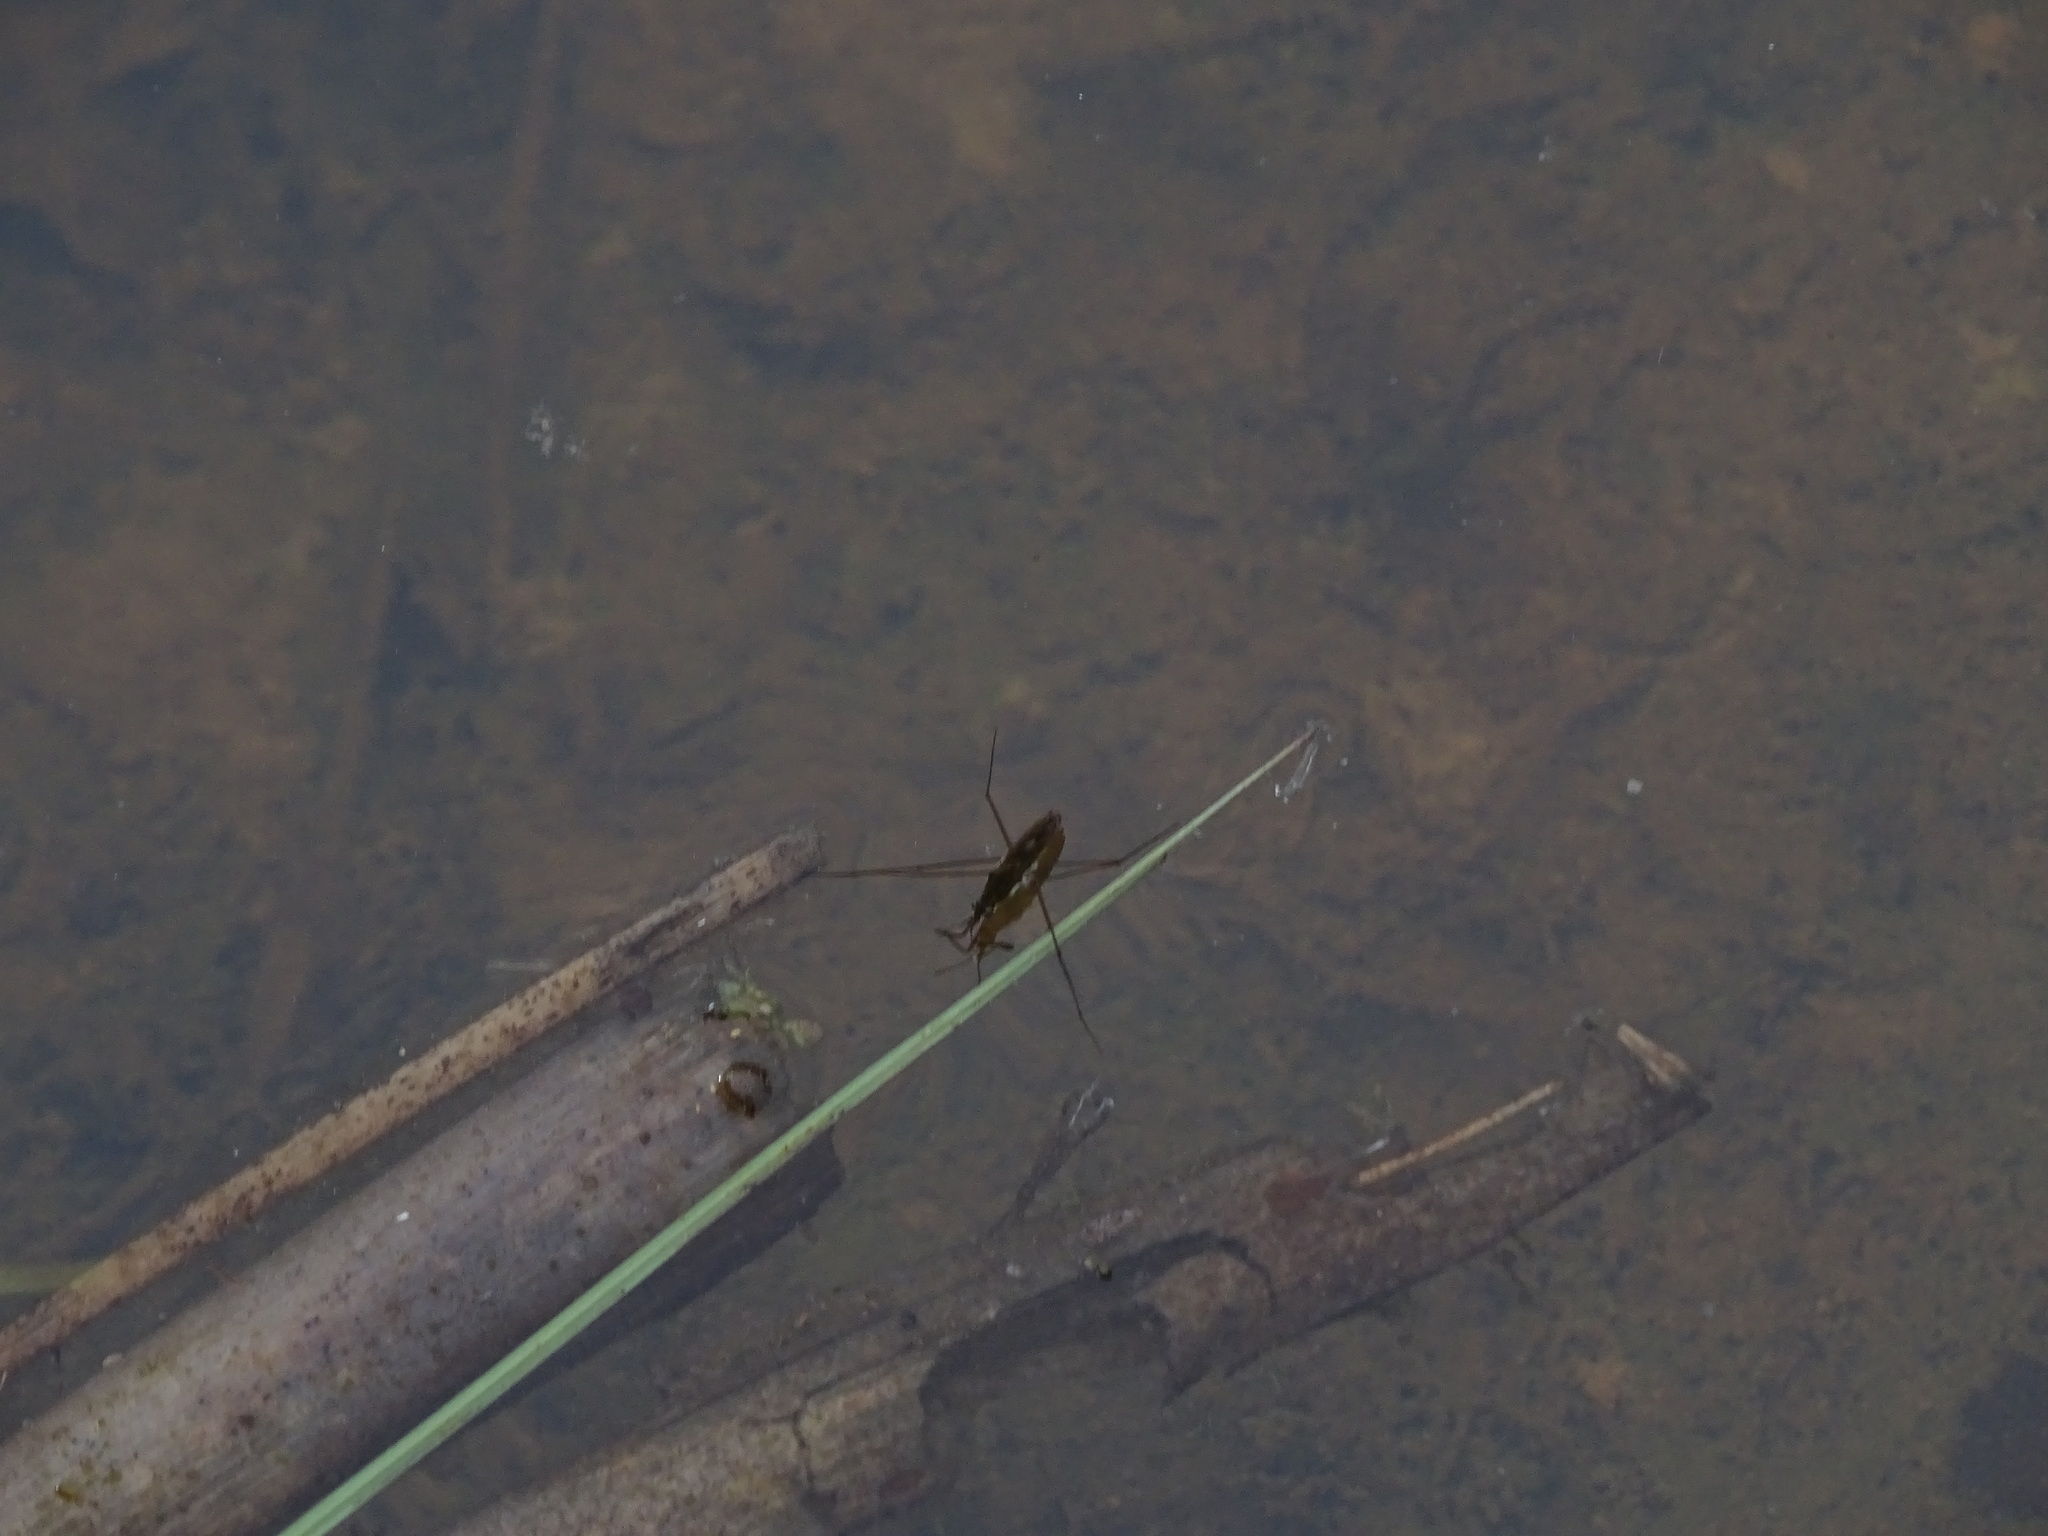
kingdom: Animalia
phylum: Arthropoda
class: Insecta
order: Hemiptera
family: Gerridae
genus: Gerris
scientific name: Gerris
